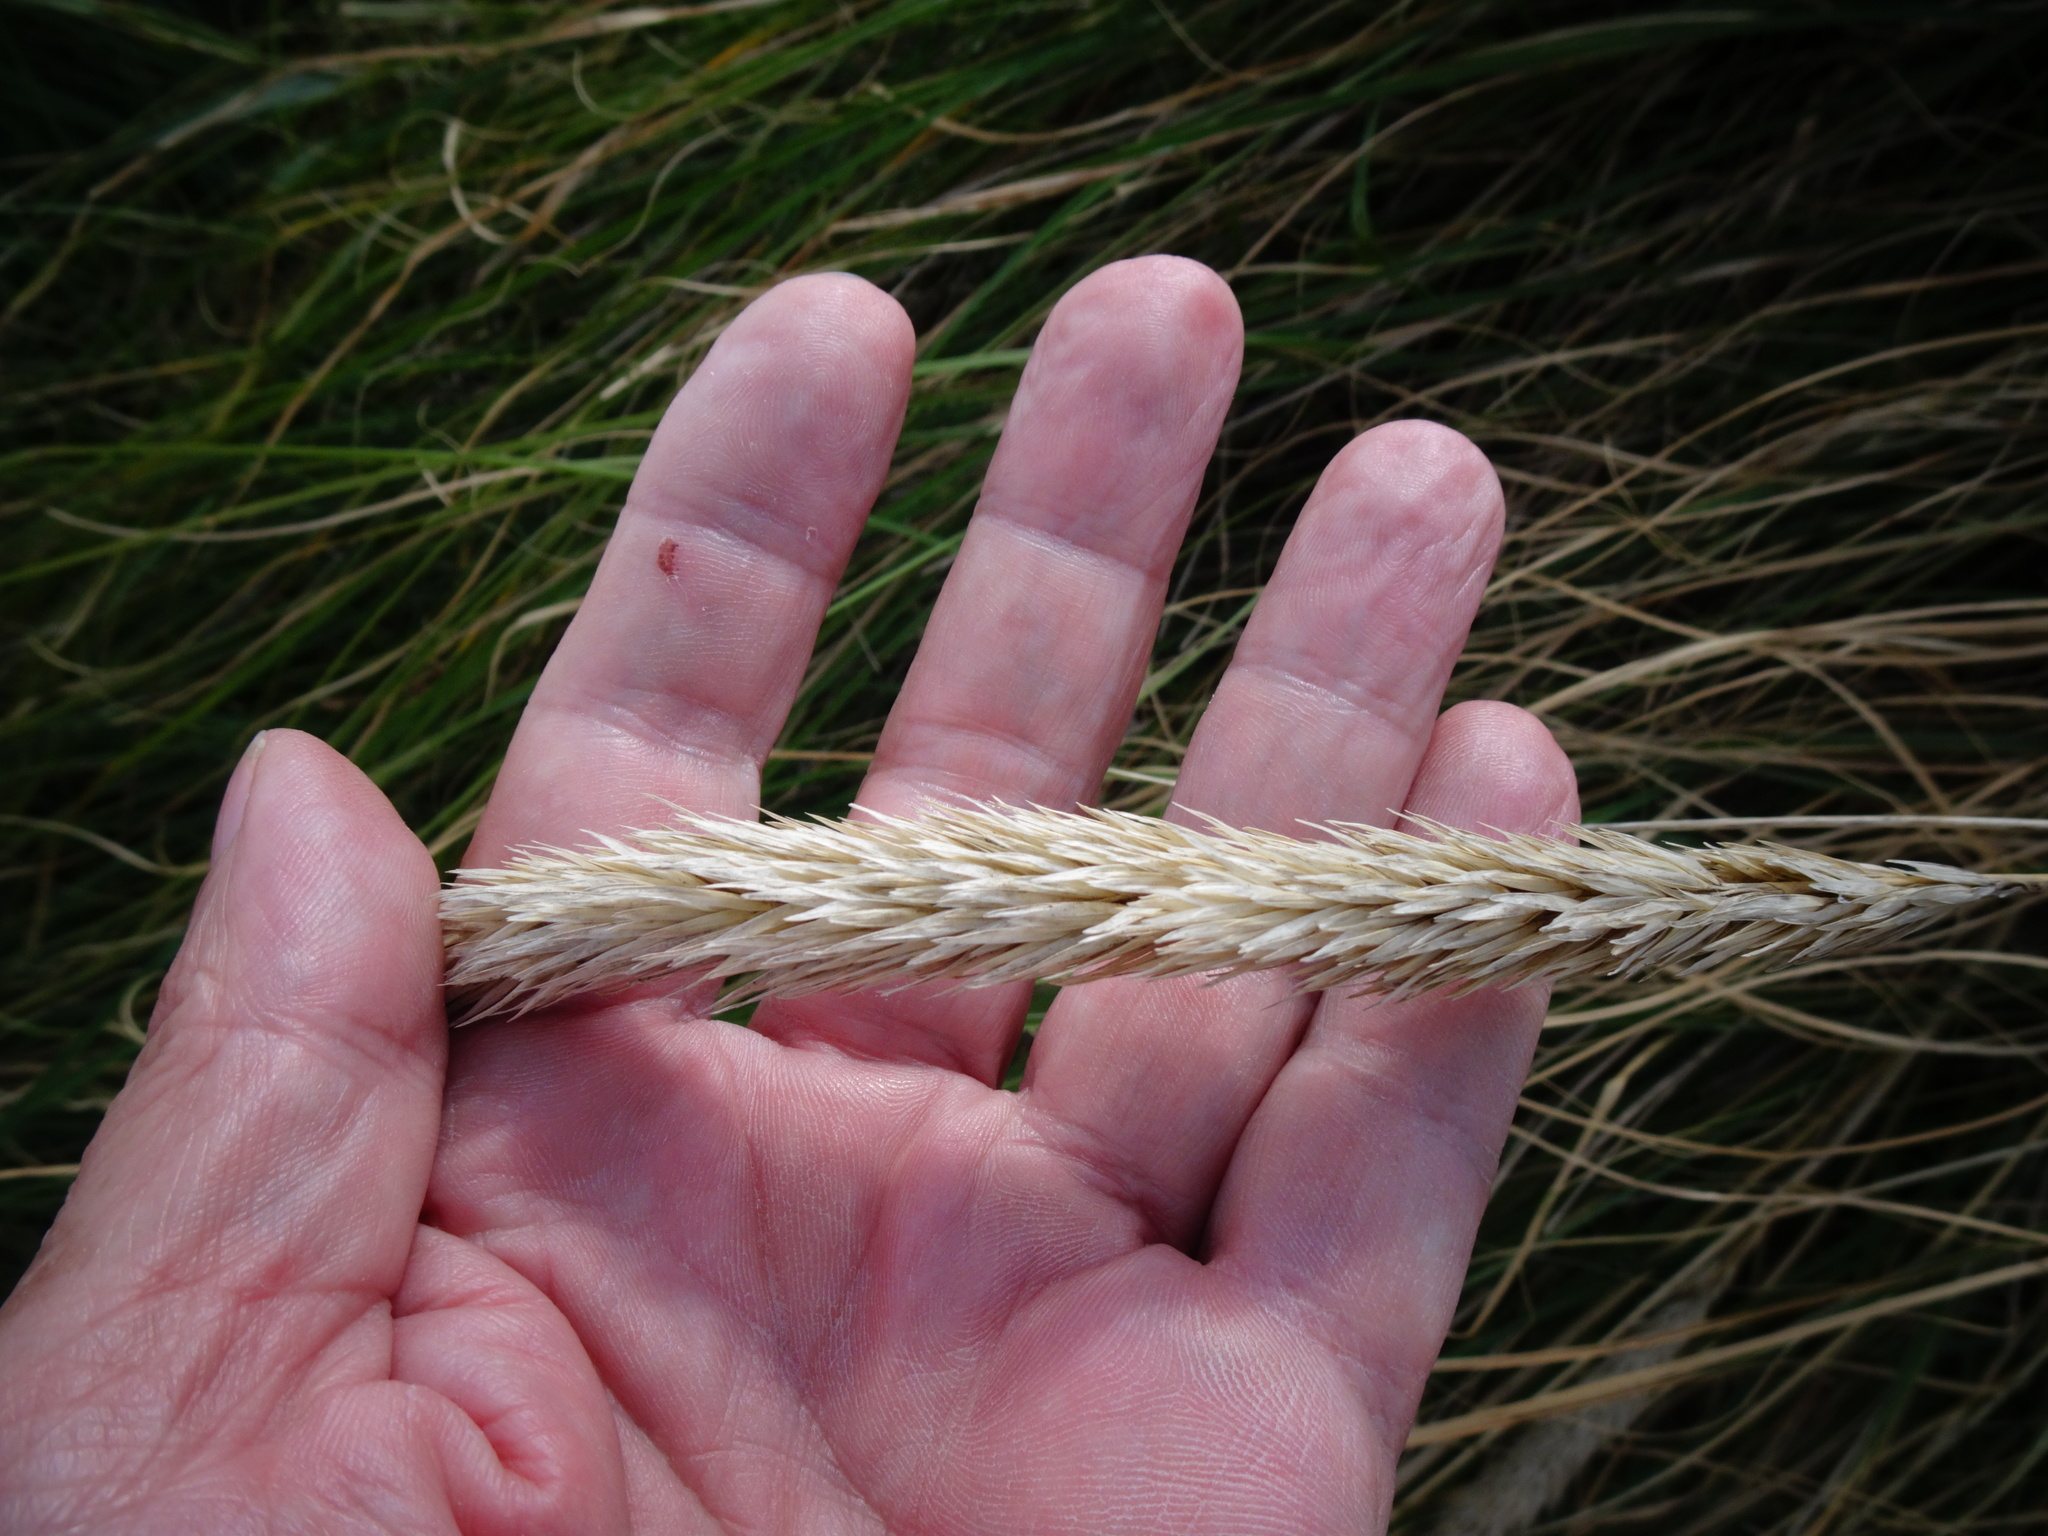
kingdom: Plantae
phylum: Tracheophyta
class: Liliopsida
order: Poales
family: Poaceae
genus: Calamagrostis
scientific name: Calamagrostis arenaria
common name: European beachgrass
